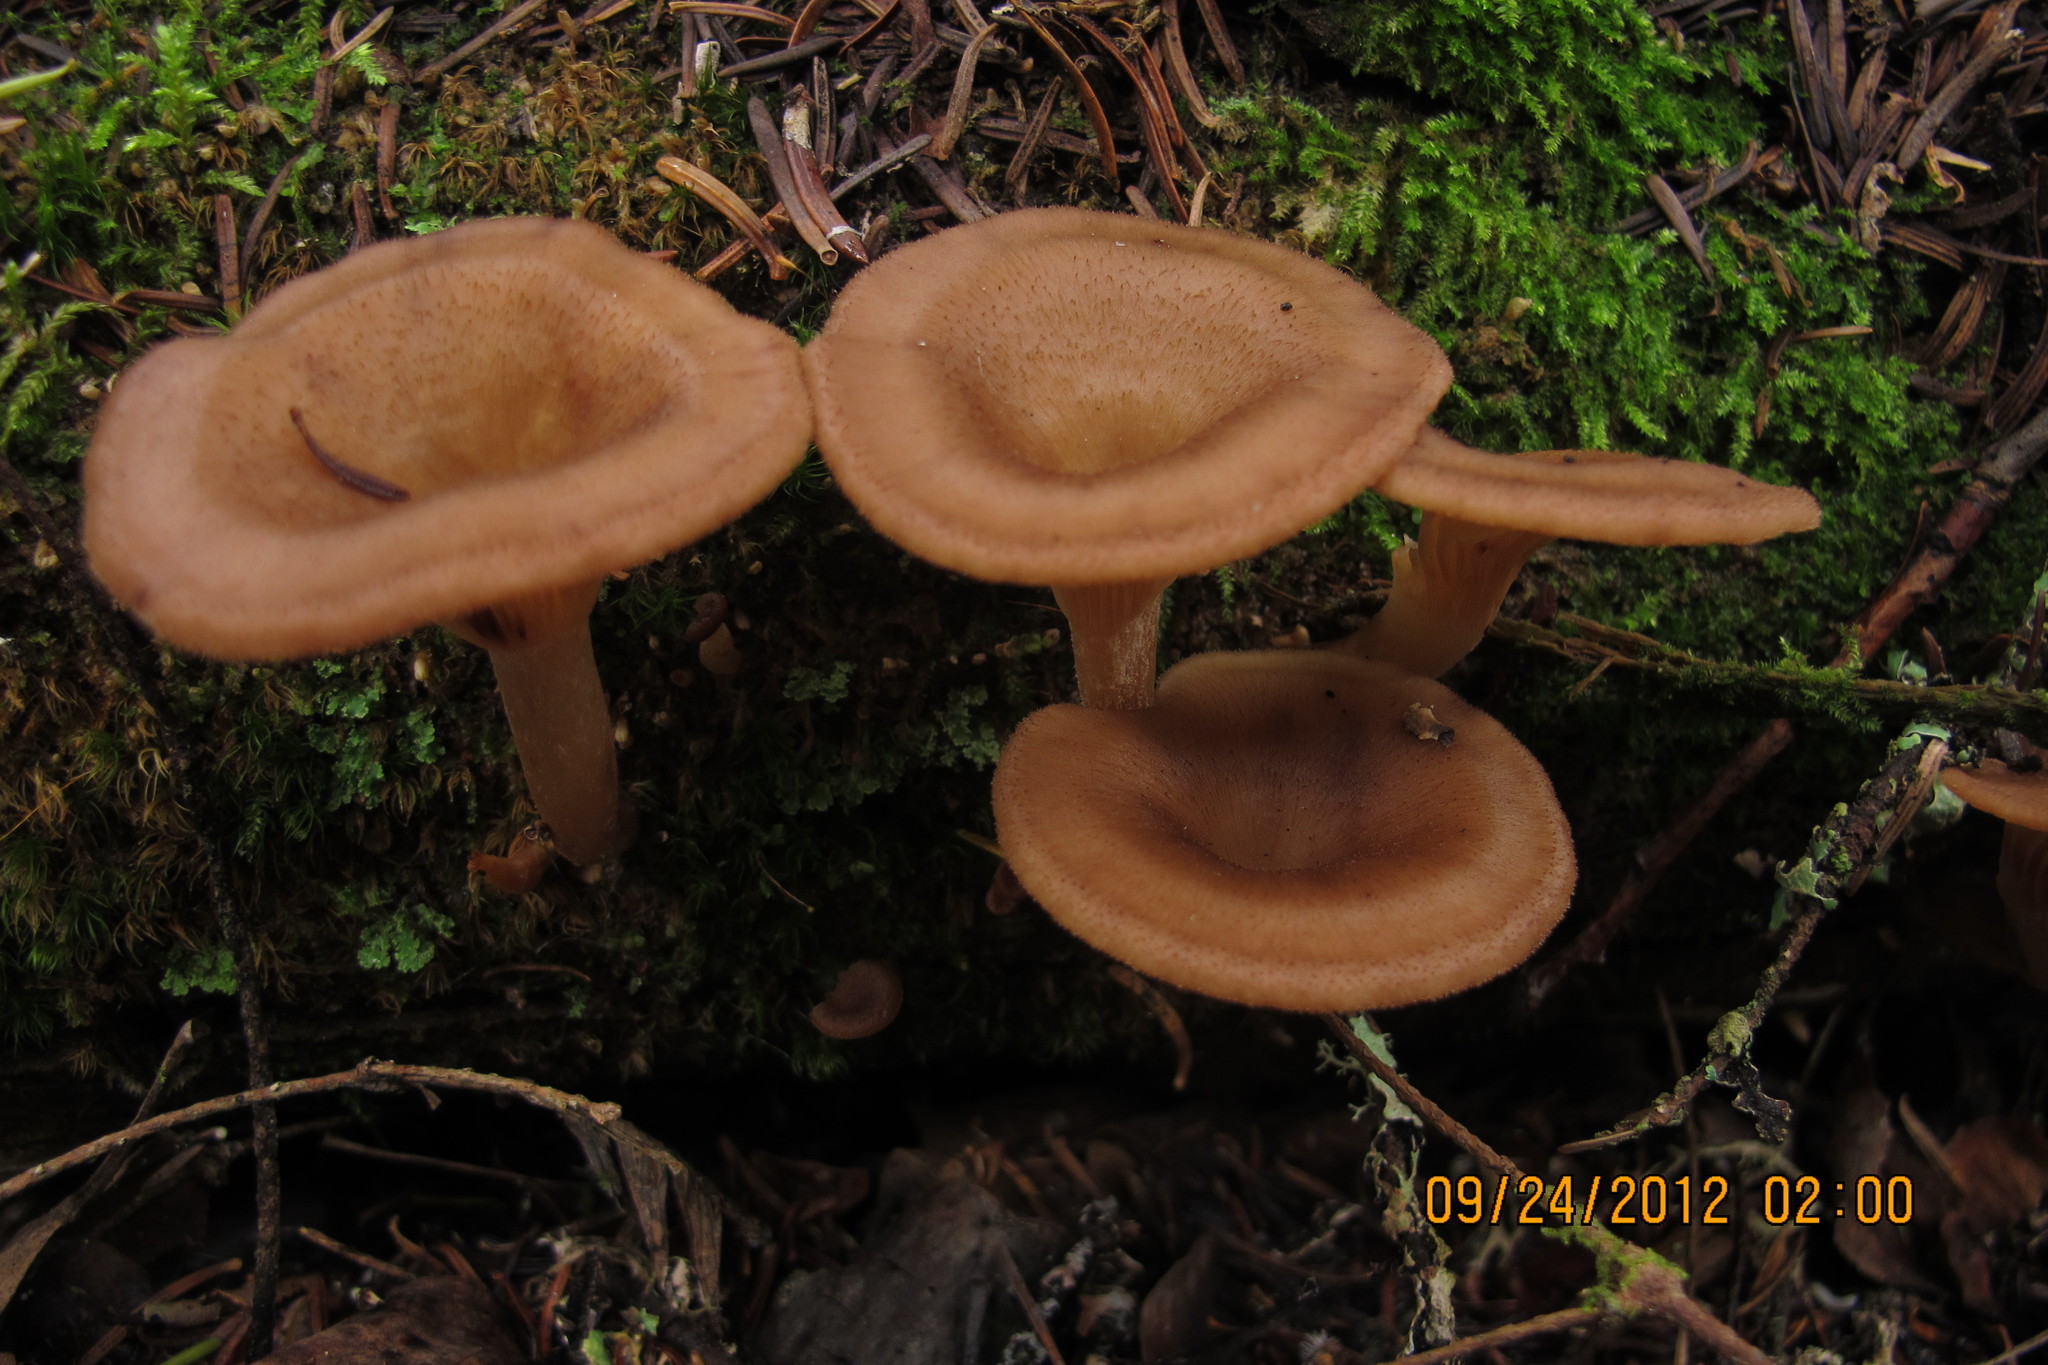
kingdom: Fungi
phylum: Basidiomycota
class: Agaricomycetes
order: Agaricales
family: Pseudoclitocybaceae
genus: Pseudoclitocybe
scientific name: Pseudoclitocybe cyathiformis
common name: Goblet
